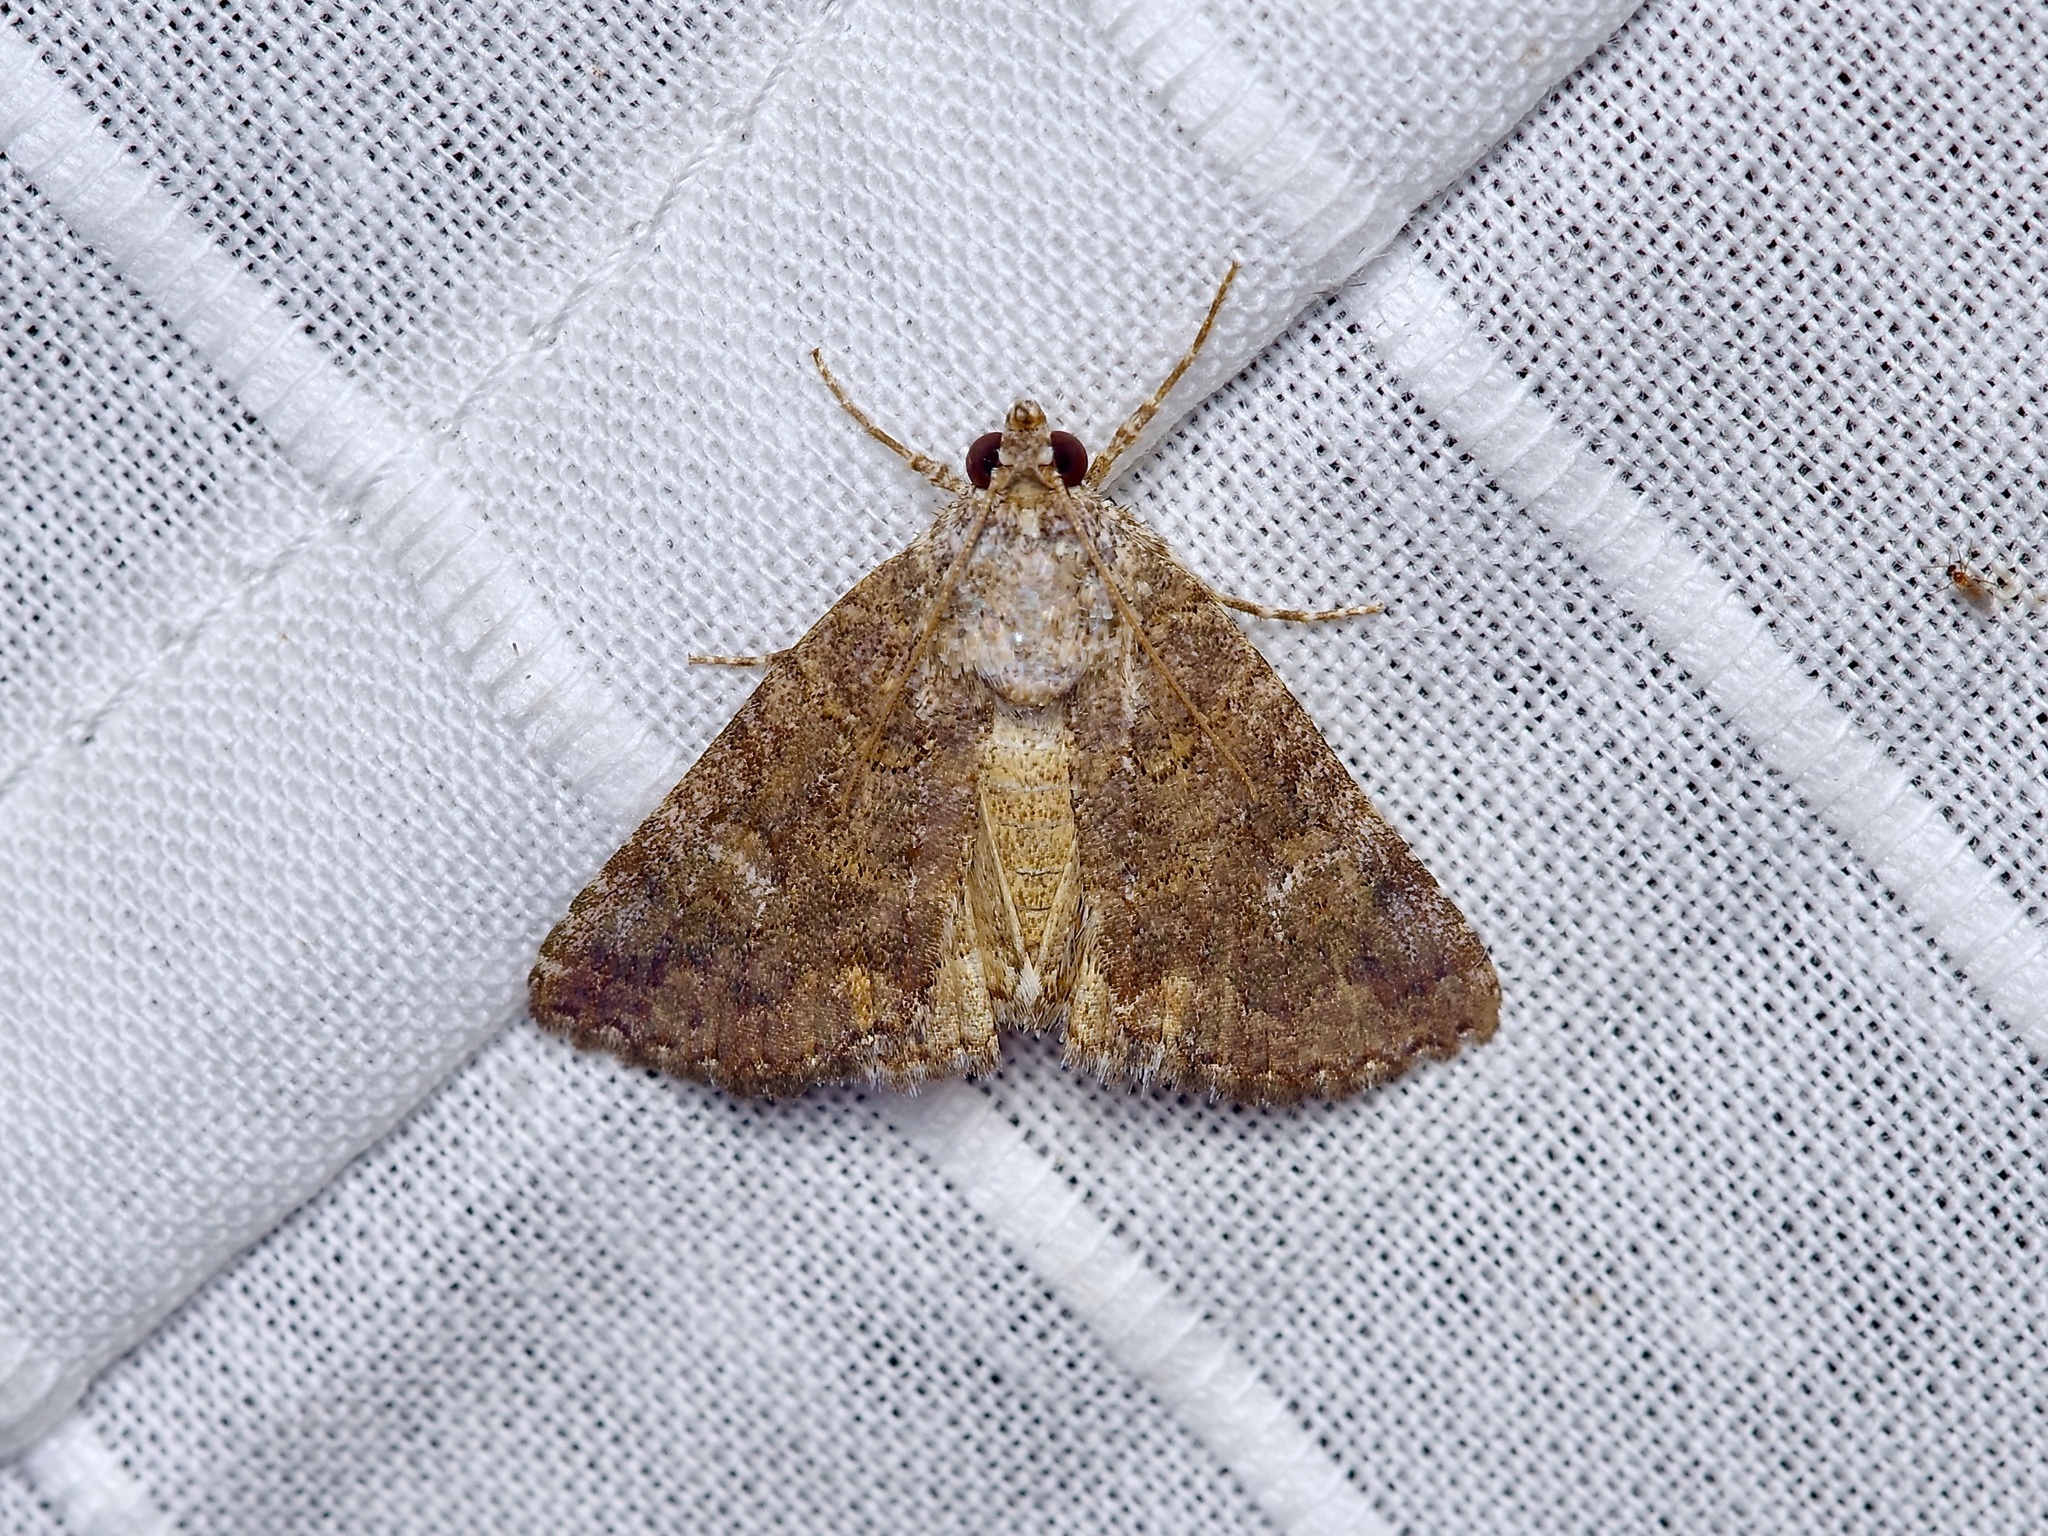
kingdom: Animalia
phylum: Arthropoda
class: Insecta
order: Lepidoptera
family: Erebidae
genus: Eubolina
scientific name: Eubolina impartialis
